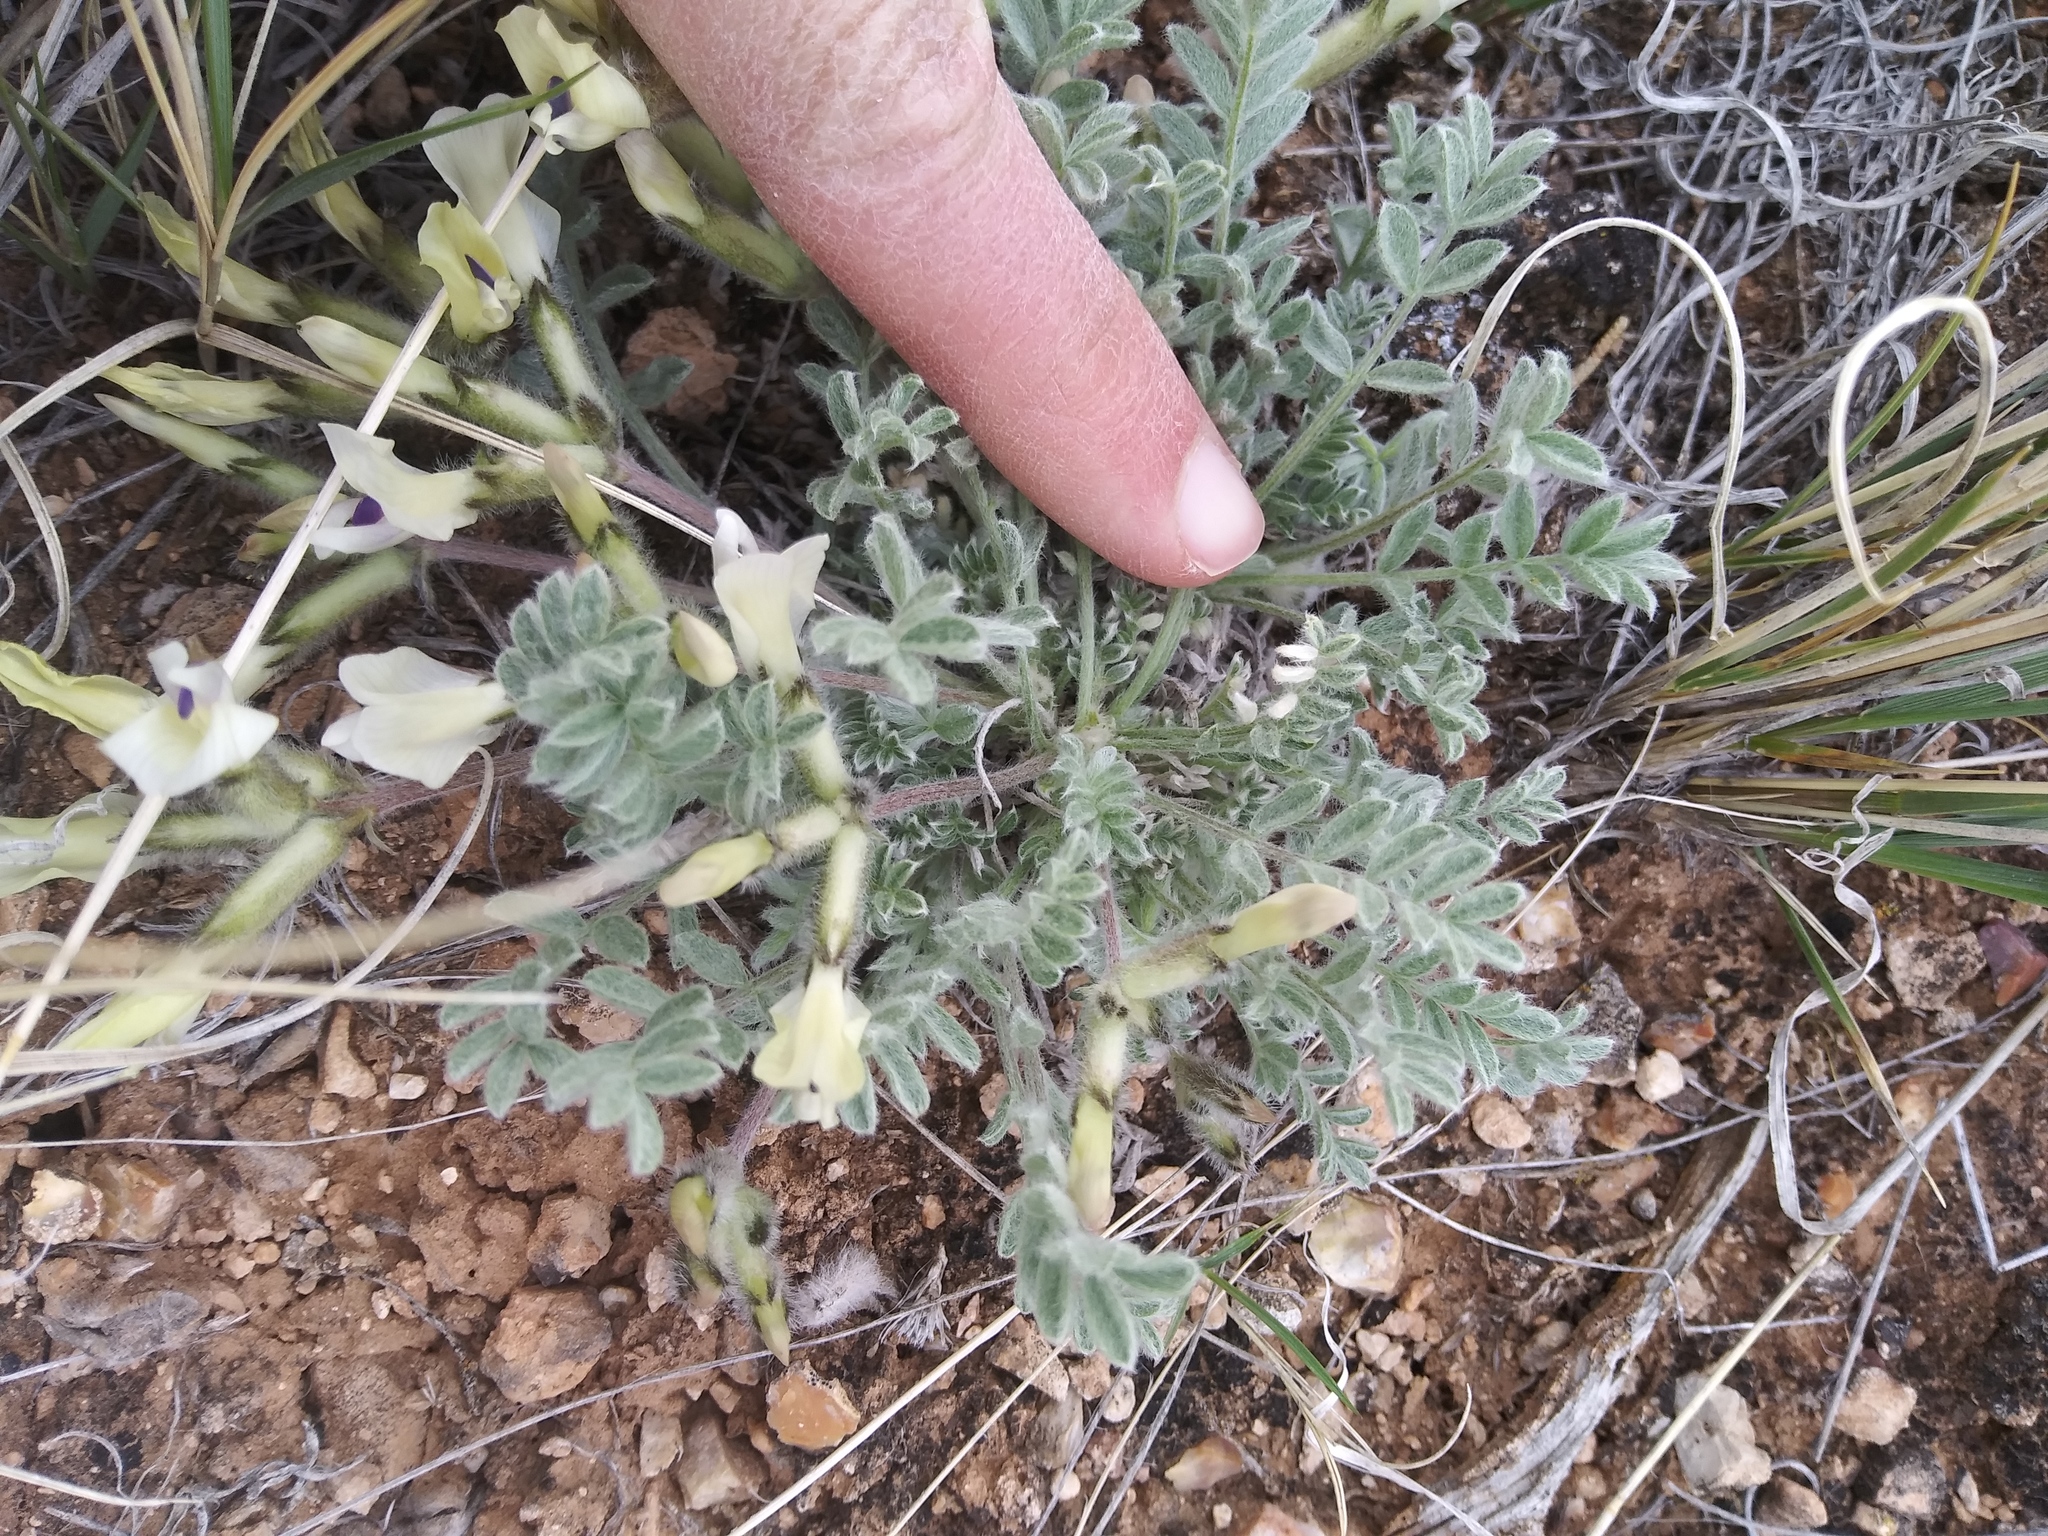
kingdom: Plantae
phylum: Tracheophyta
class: Magnoliopsida
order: Fabales
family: Fabaceae
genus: Astragalus
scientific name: Astragalus purshii
